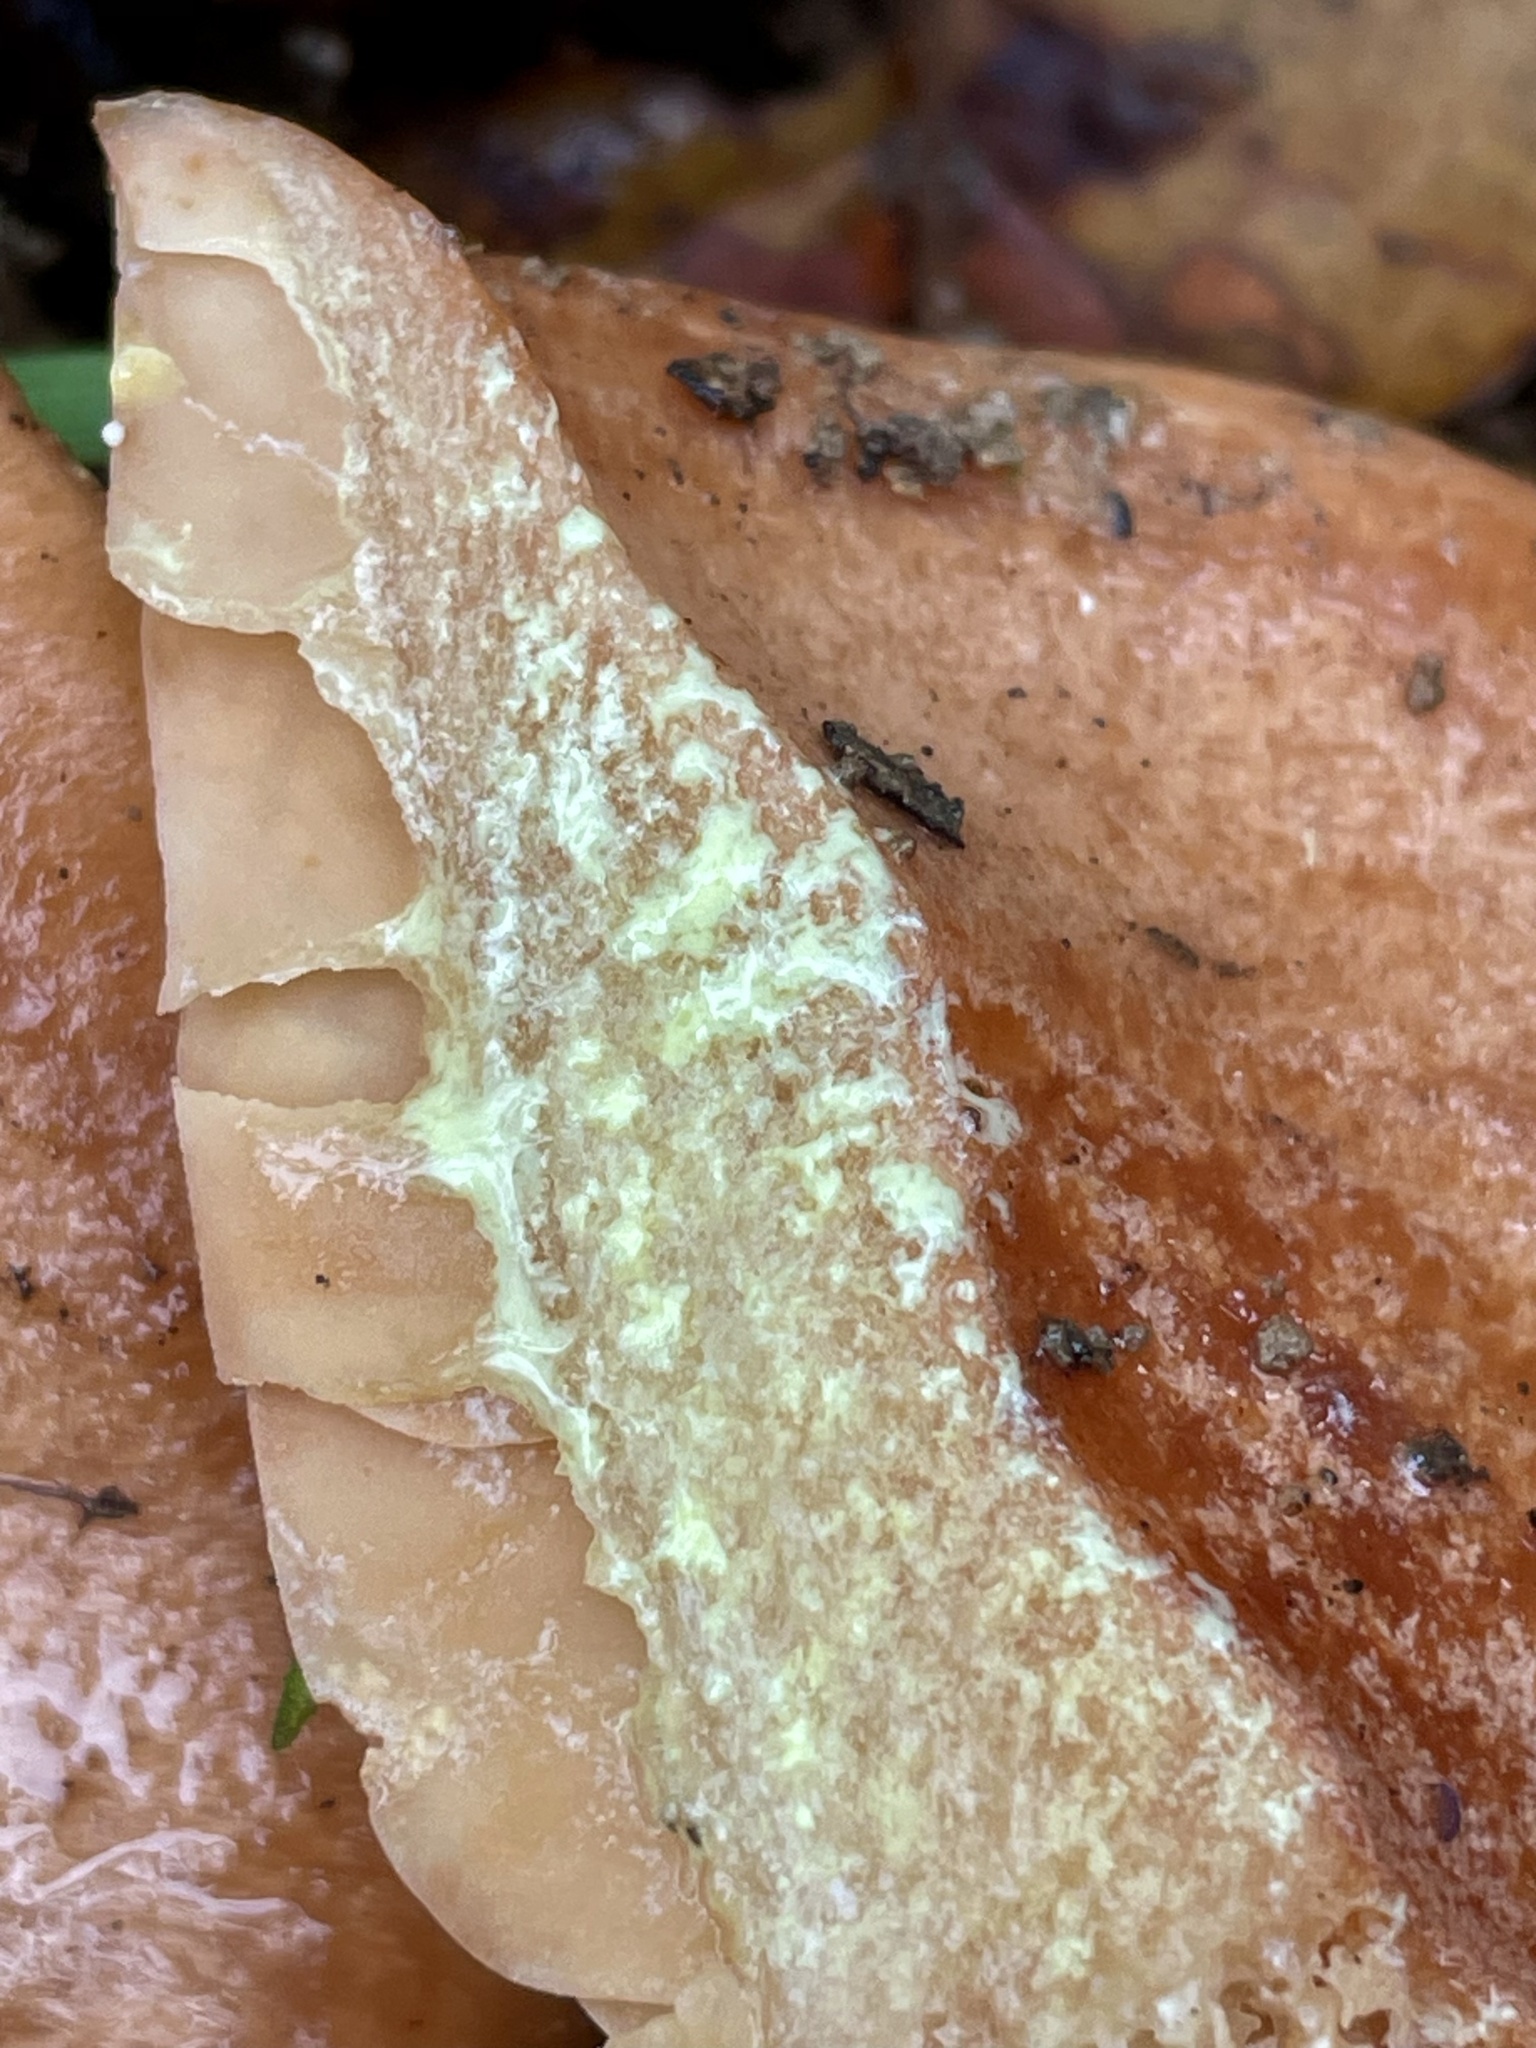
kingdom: Fungi
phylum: Basidiomycota
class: Agaricomycetes
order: Russulales
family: Russulaceae
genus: Lactarius
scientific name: Lactarius xanthogalactus
